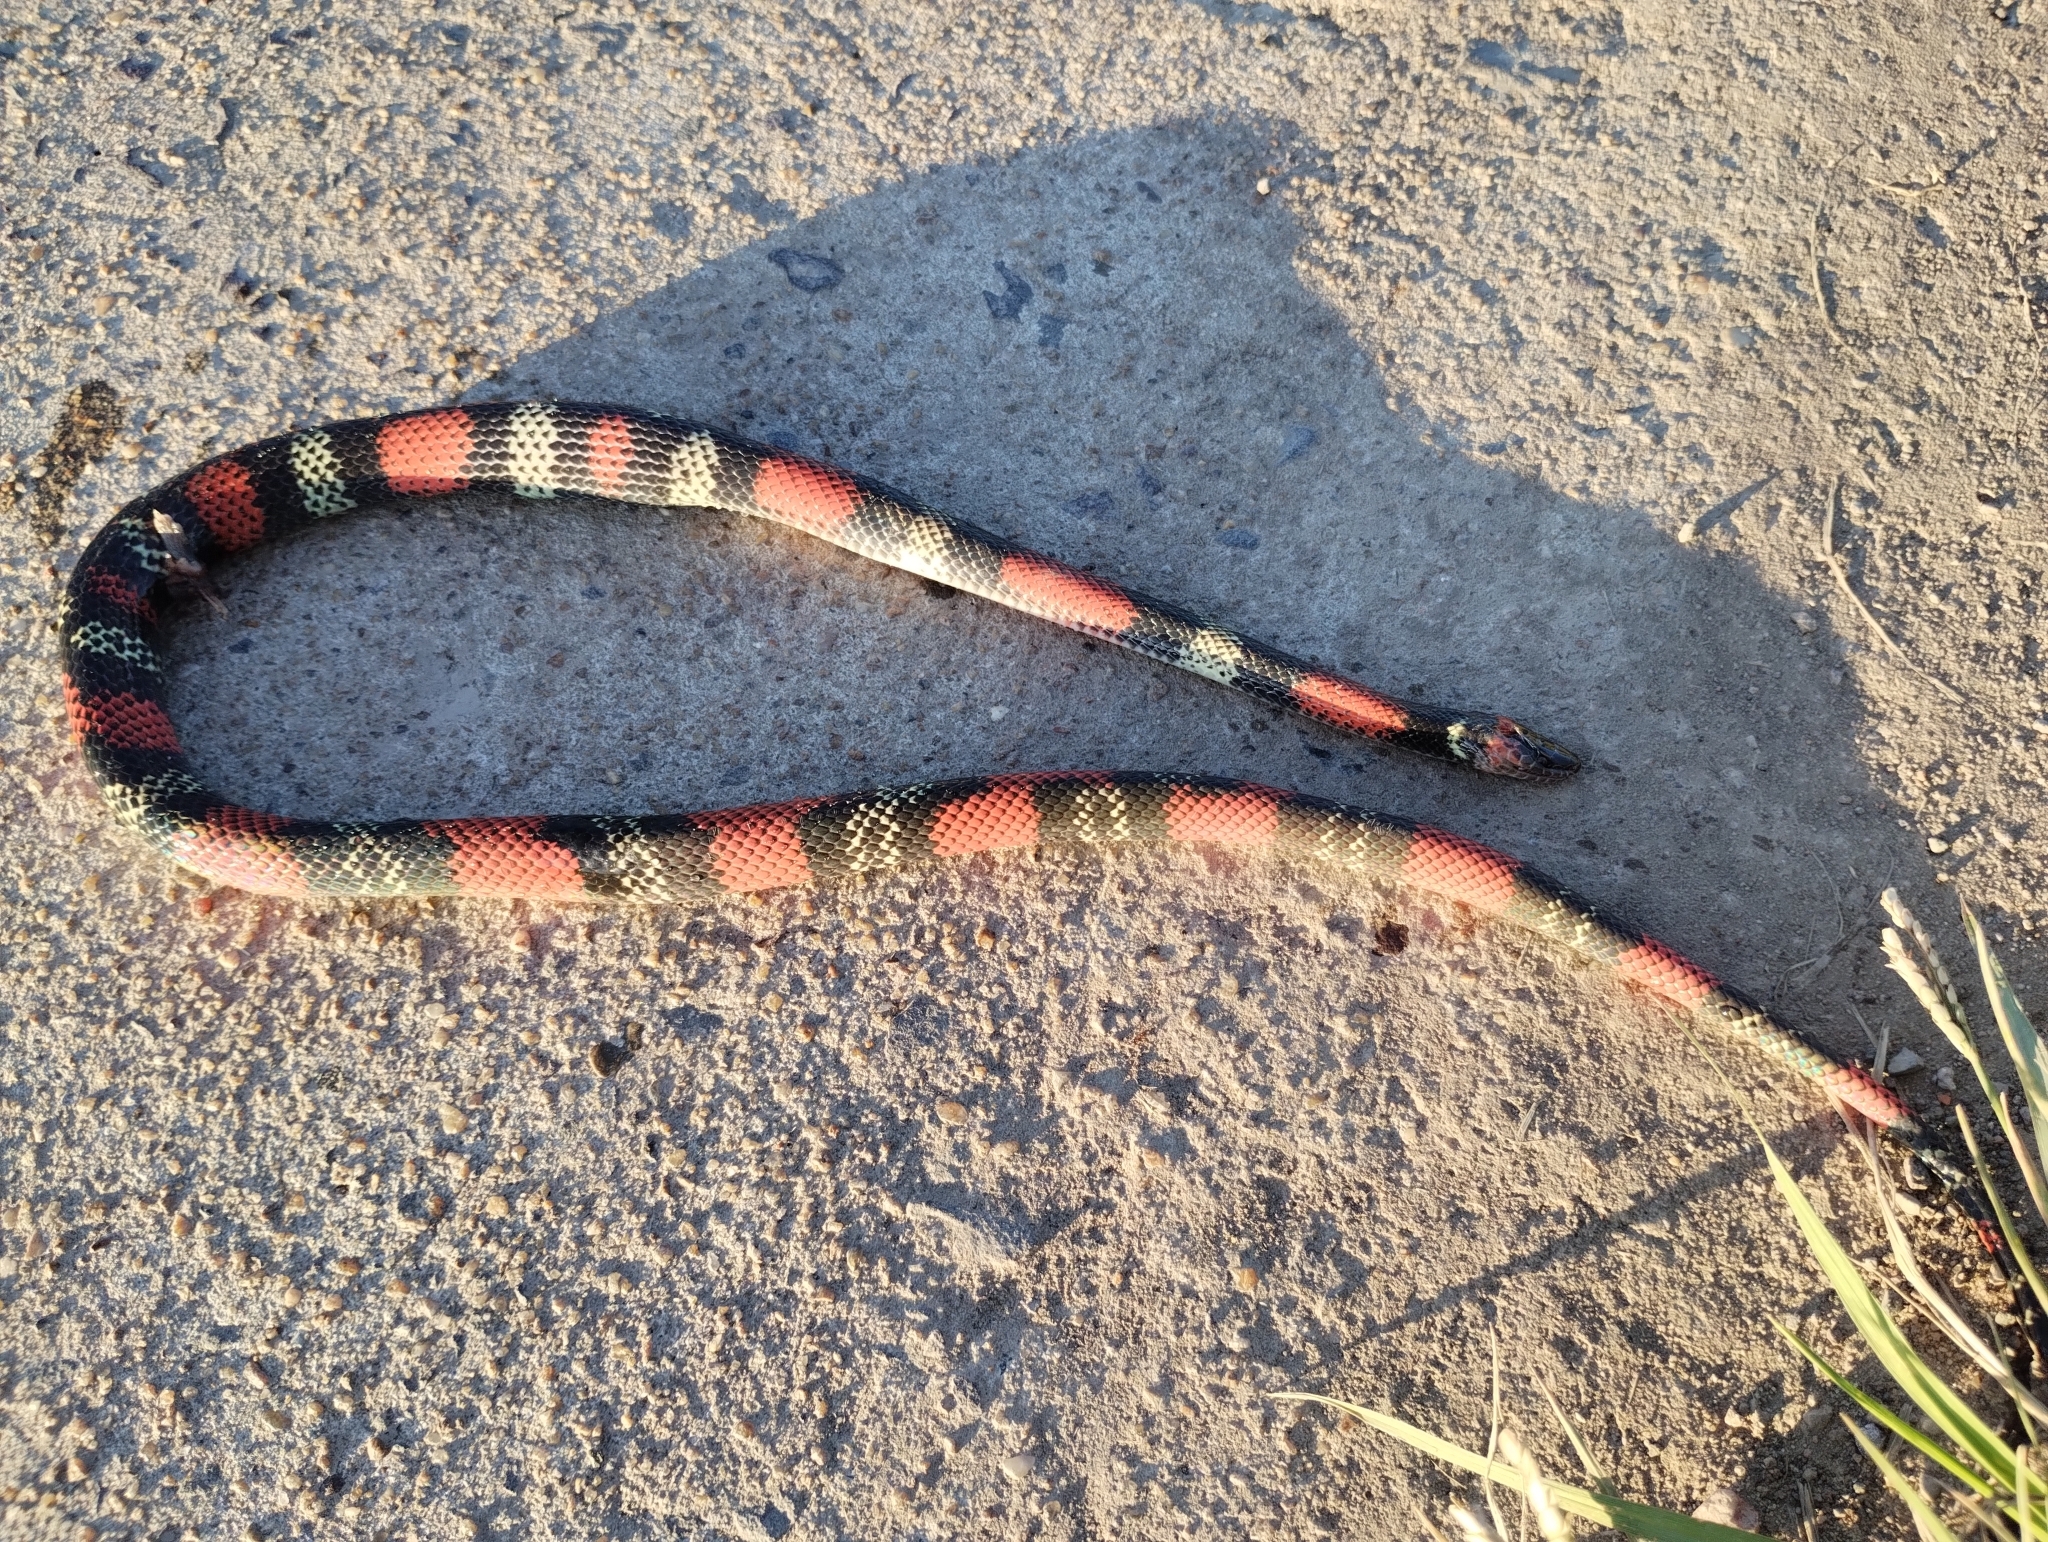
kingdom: Animalia
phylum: Chordata
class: Squamata
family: Colubridae
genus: Oxyrhopus
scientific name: Oxyrhopus guibei
